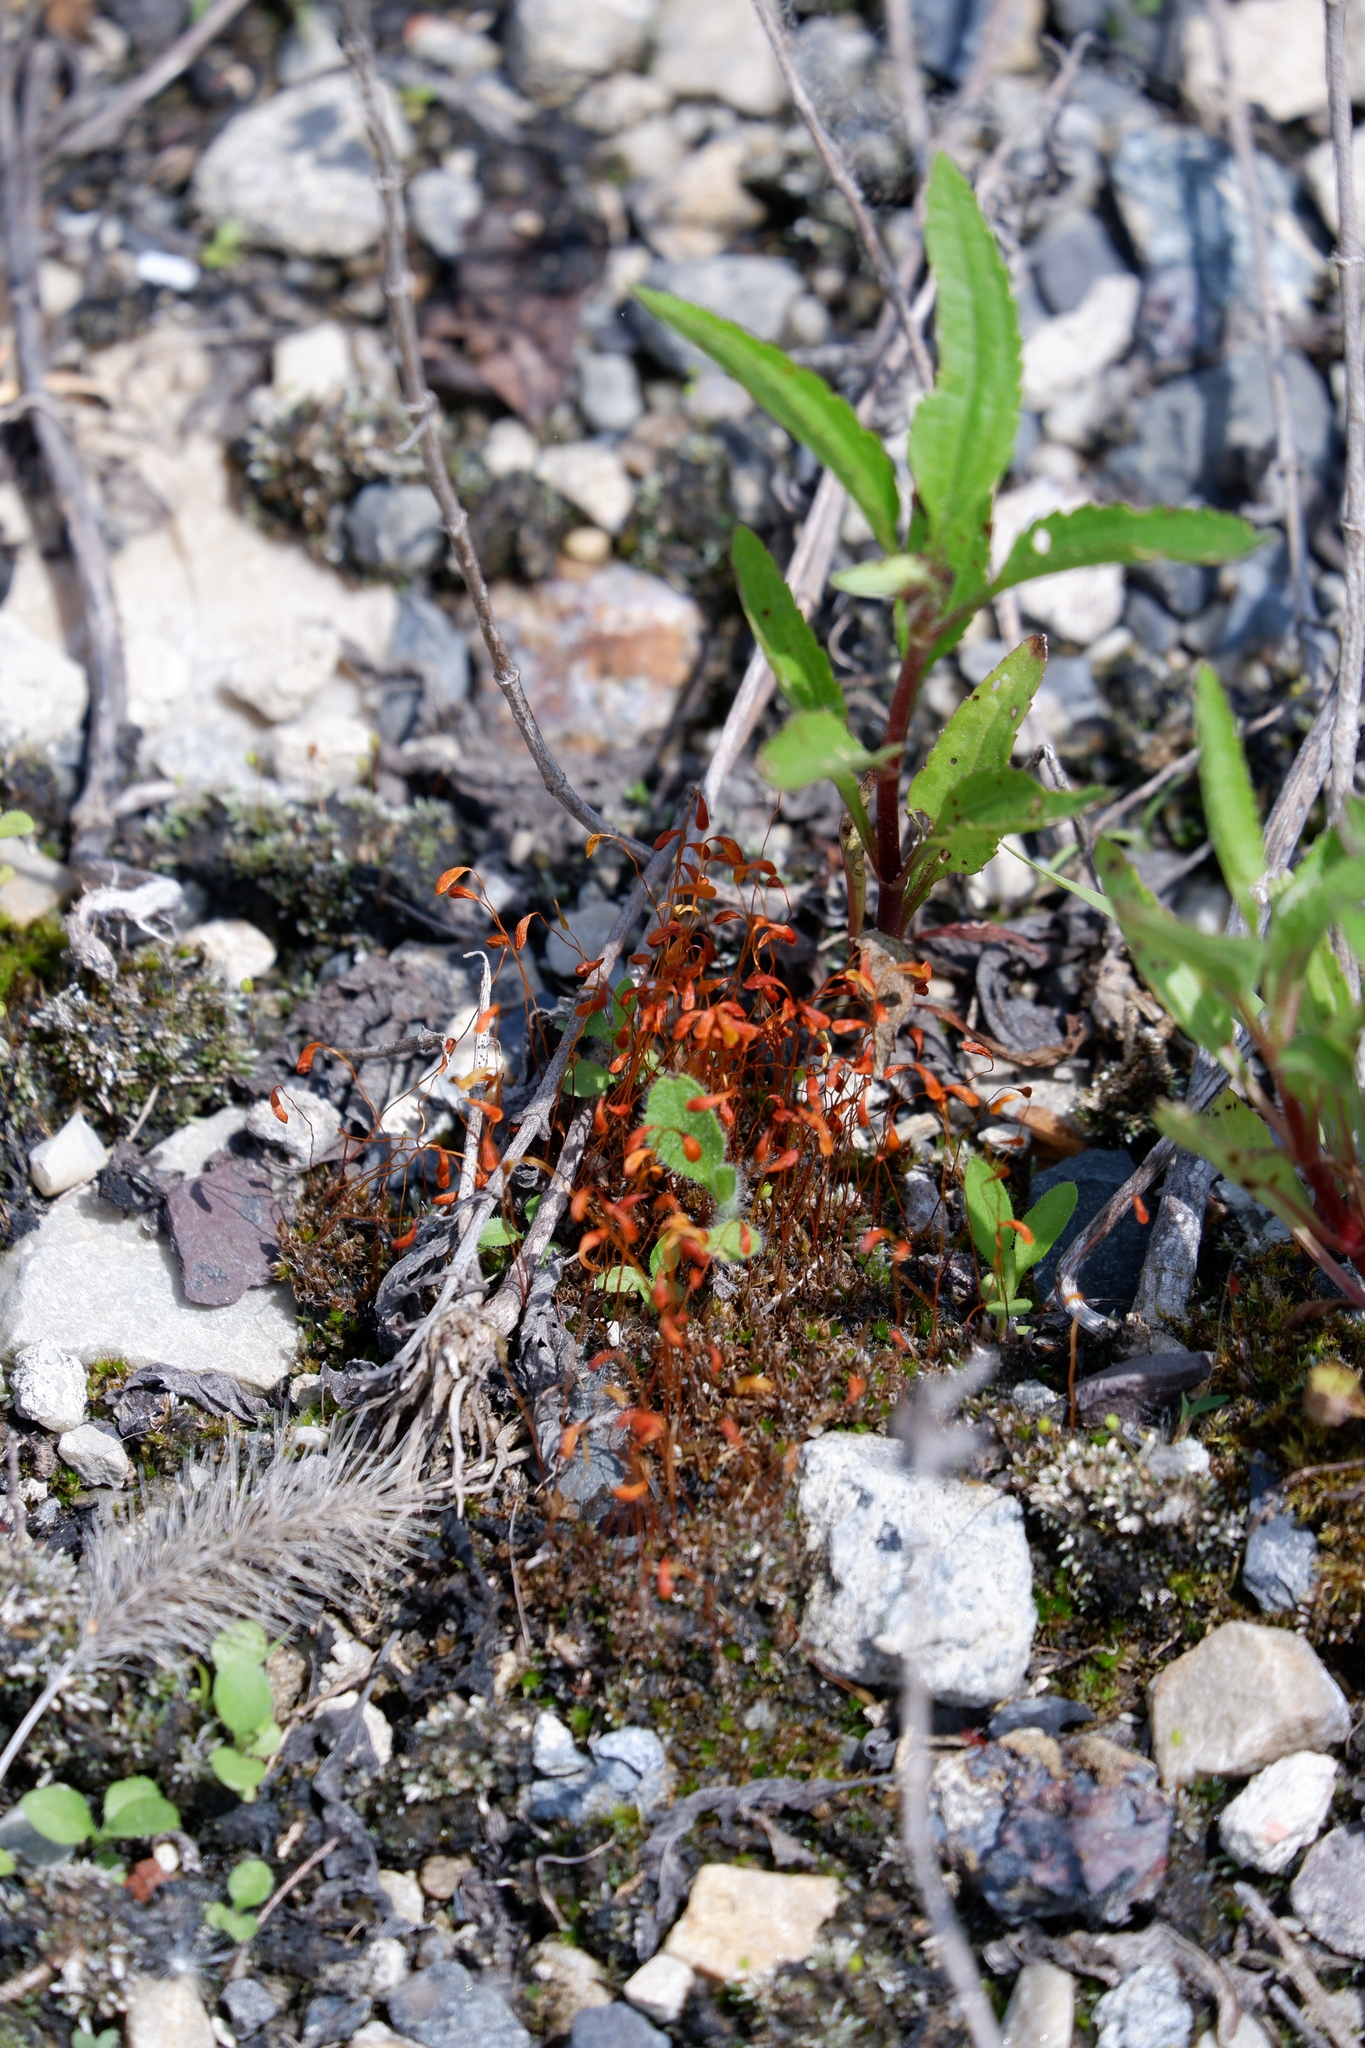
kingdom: Plantae
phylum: Bryophyta
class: Bryopsida
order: Funariales
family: Funariaceae
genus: Funaria
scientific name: Funaria hygrometrica
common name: Common cord moss
